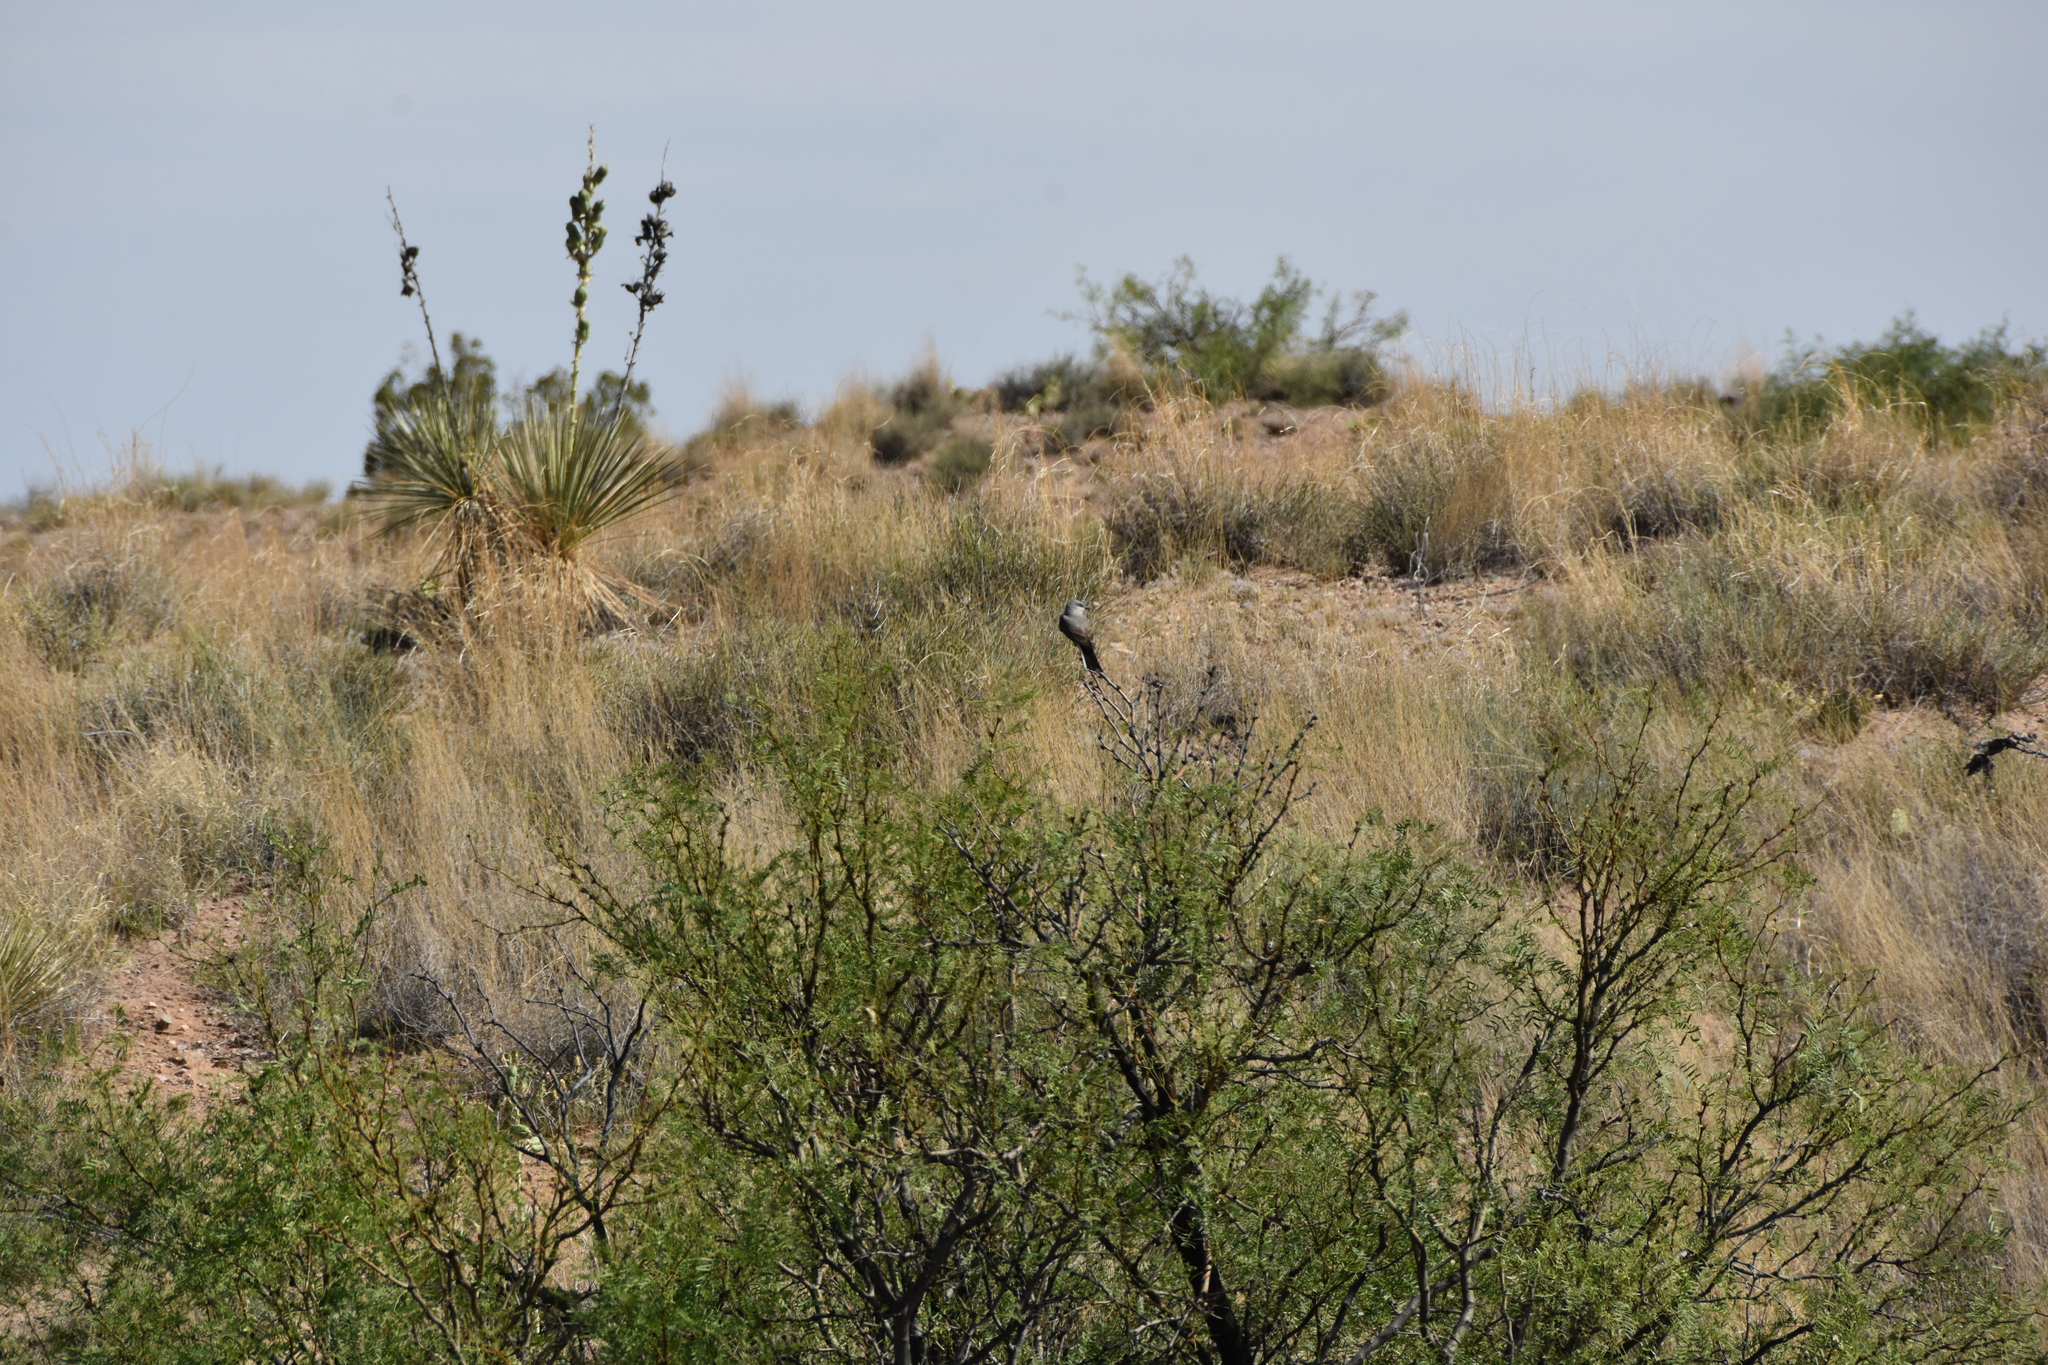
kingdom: Animalia
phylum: Chordata
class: Aves
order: Passeriformes
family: Tyrannidae
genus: Tyrannus
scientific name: Tyrannus verticalis
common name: Western kingbird
